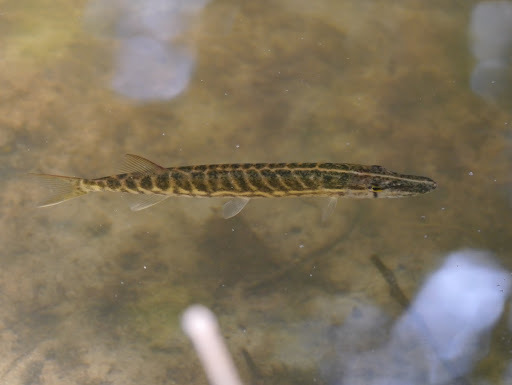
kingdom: Animalia
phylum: Chordata
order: Esociformes
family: Esocidae
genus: Esox
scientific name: Esox
